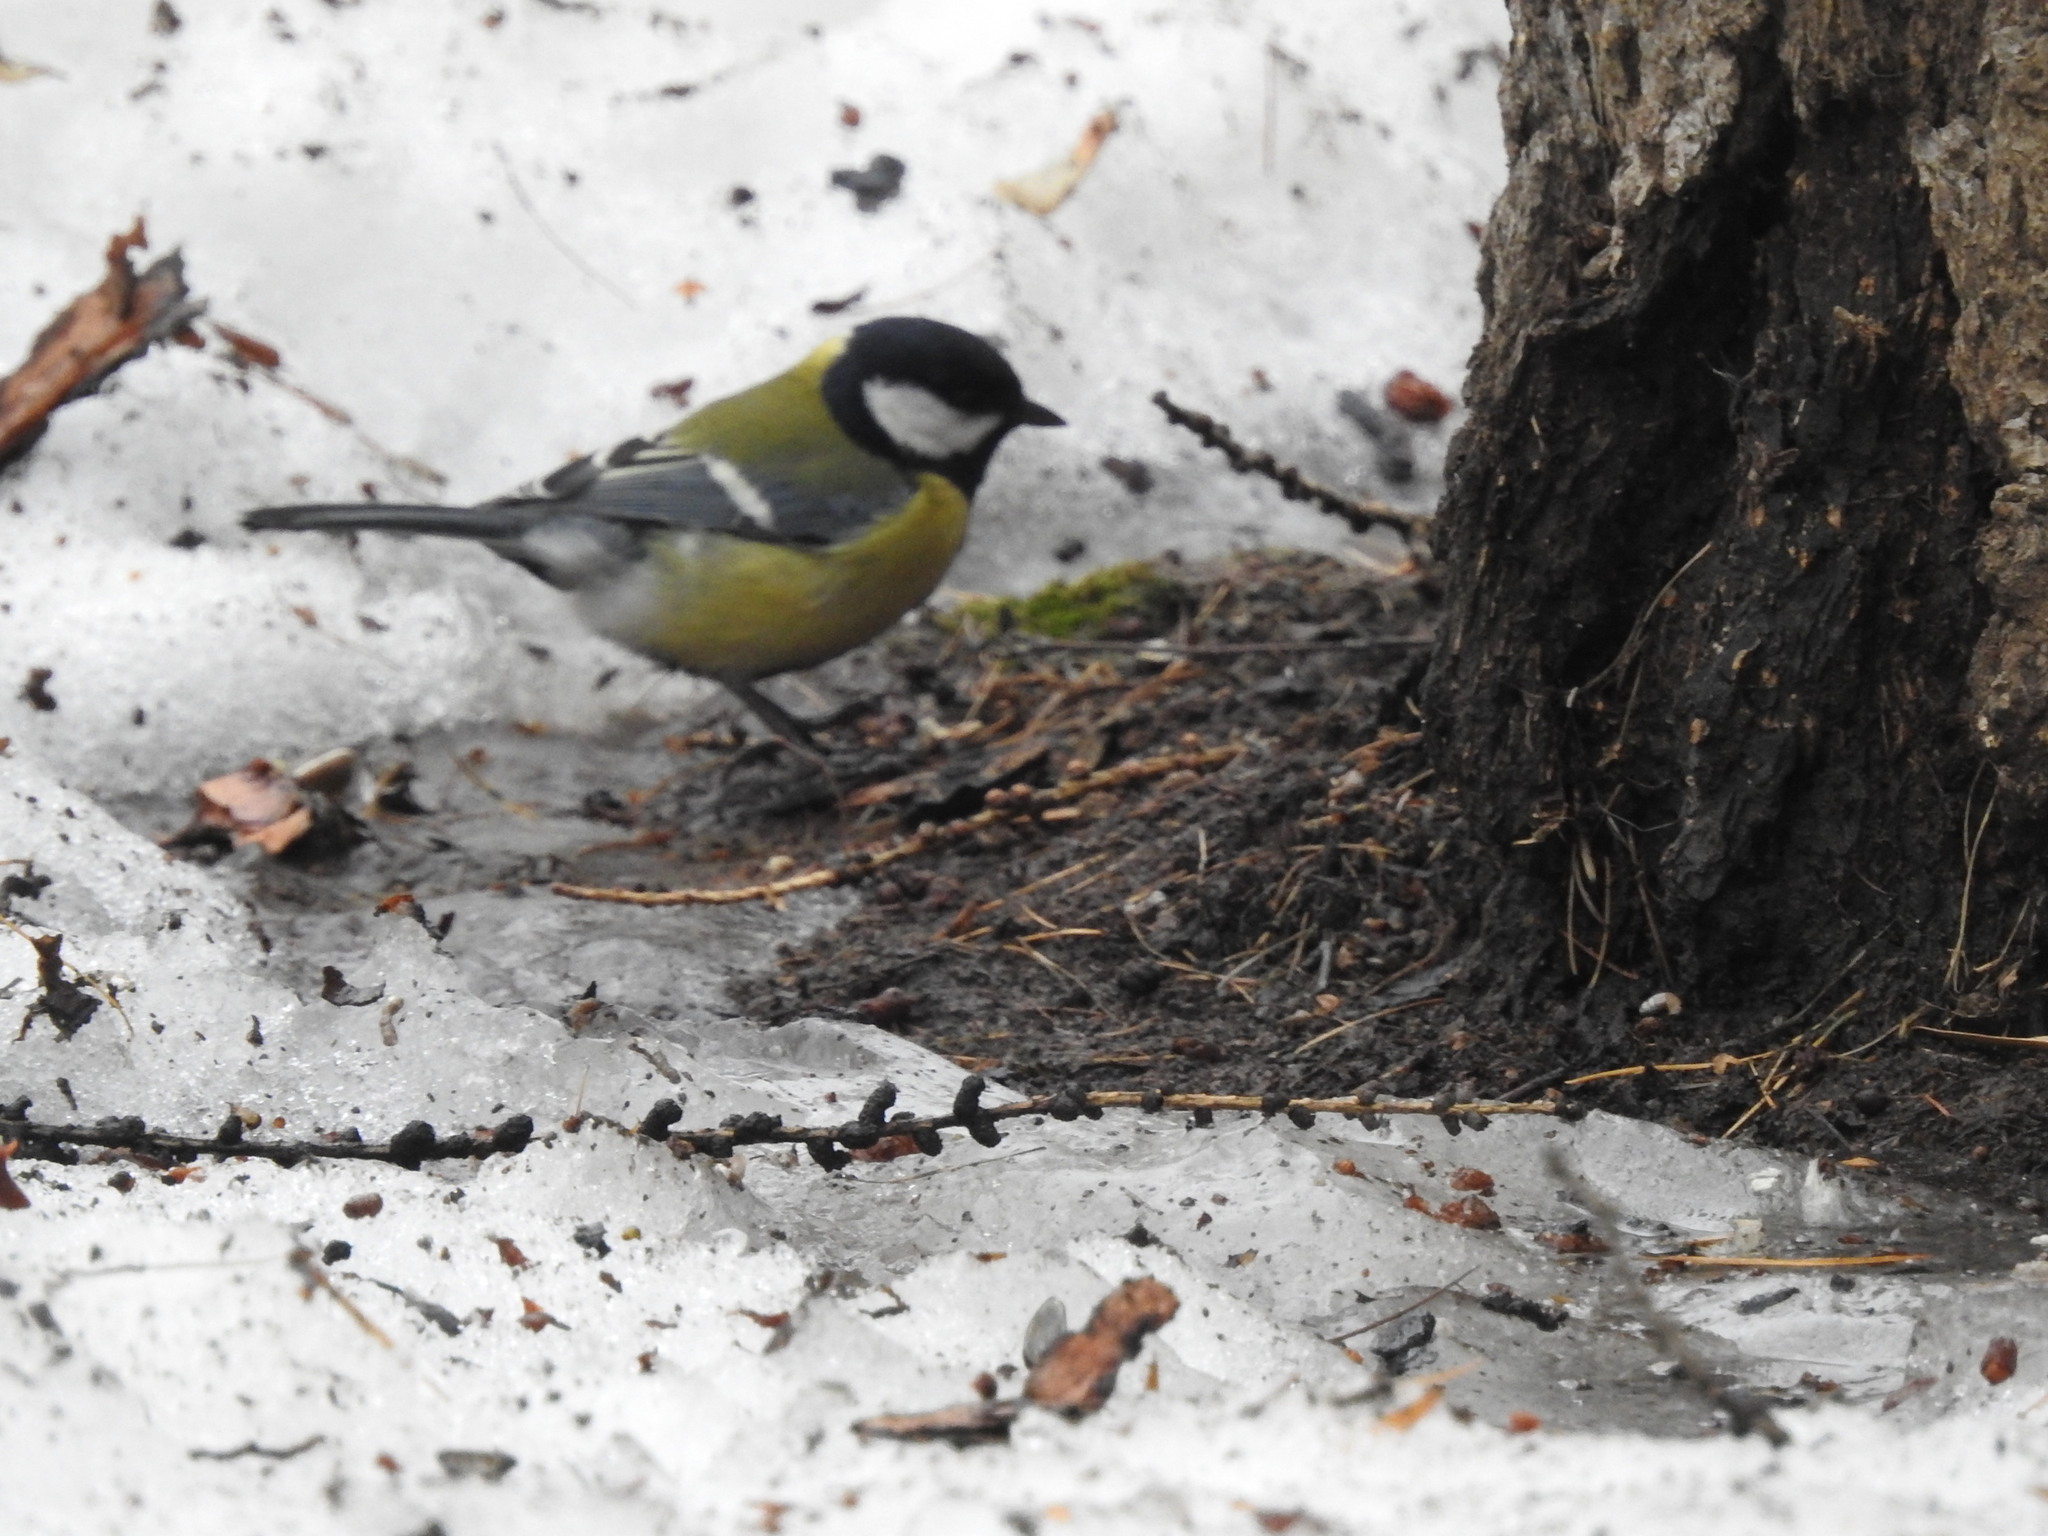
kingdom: Animalia
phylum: Chordata
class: Aves
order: Passeriformes
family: Paridae
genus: Parus
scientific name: Parus major
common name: Great tit
